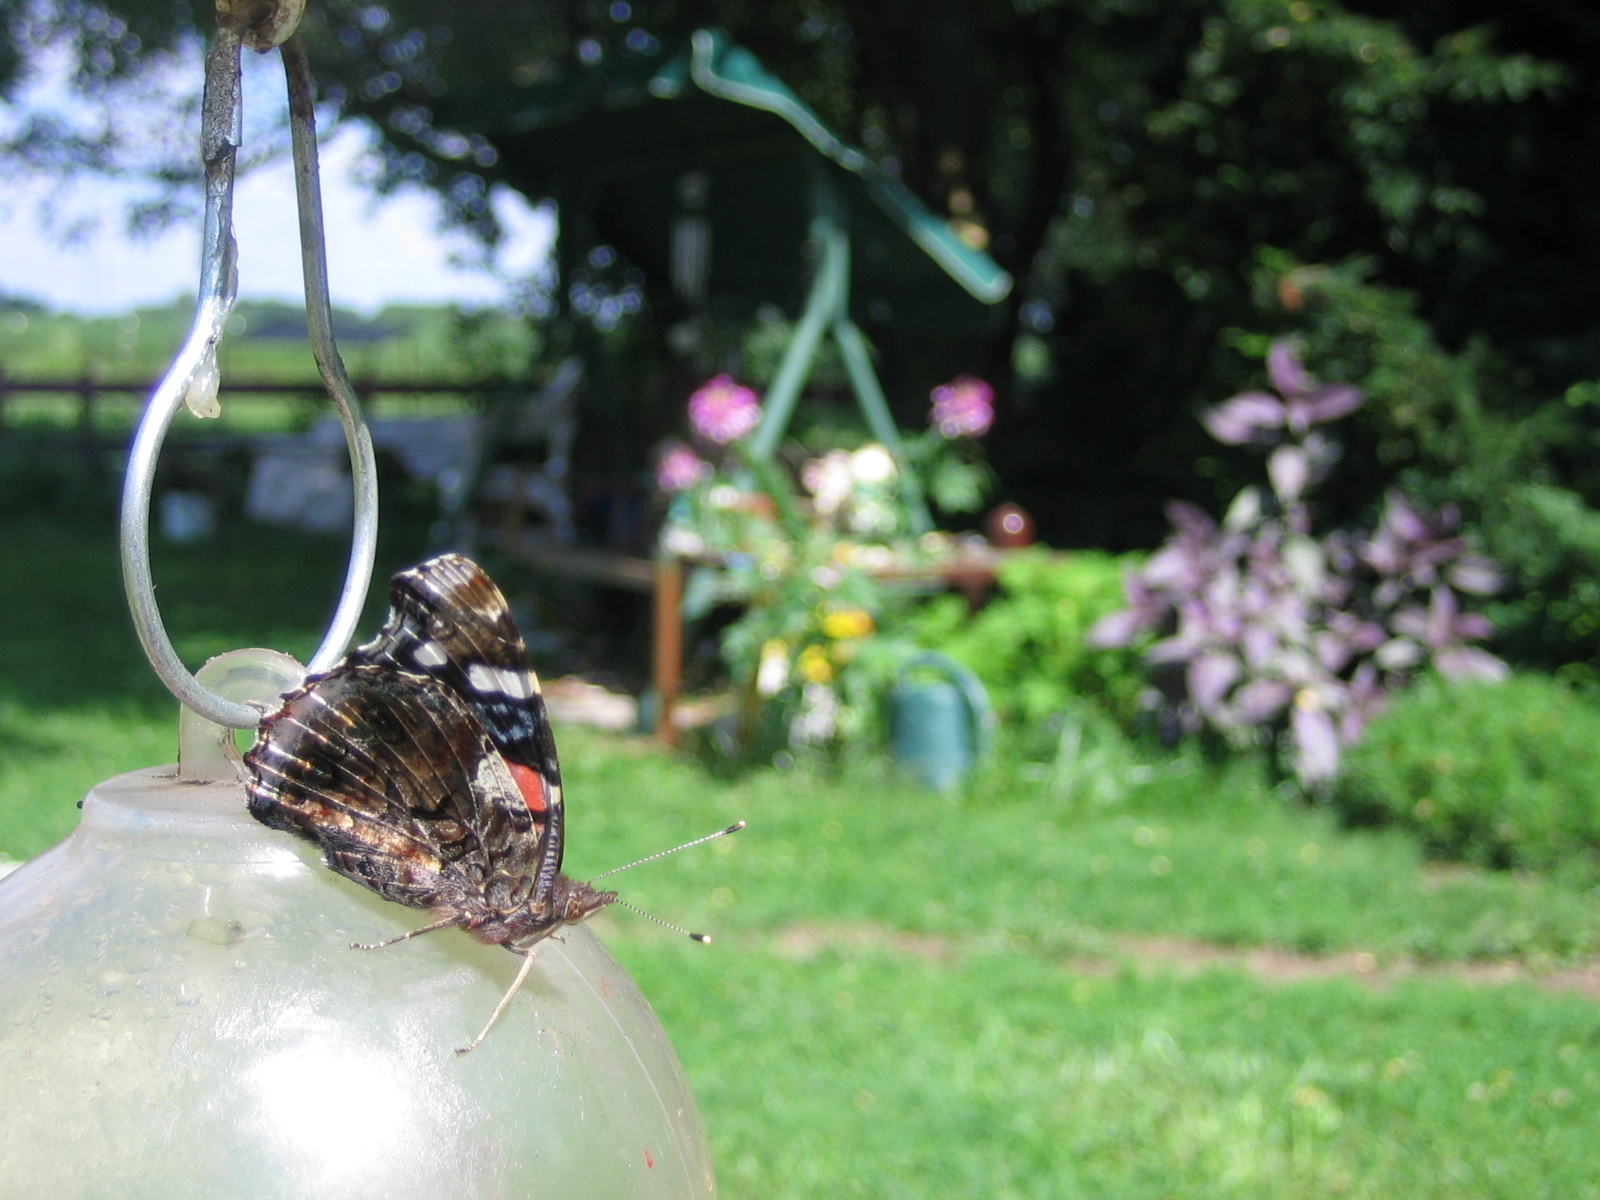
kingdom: Animalia
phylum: Arthropoda
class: Insecta
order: Lepidoptera
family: Nymphalidae
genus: Vanessa
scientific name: Vanessa atalanta
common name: Red admiral
